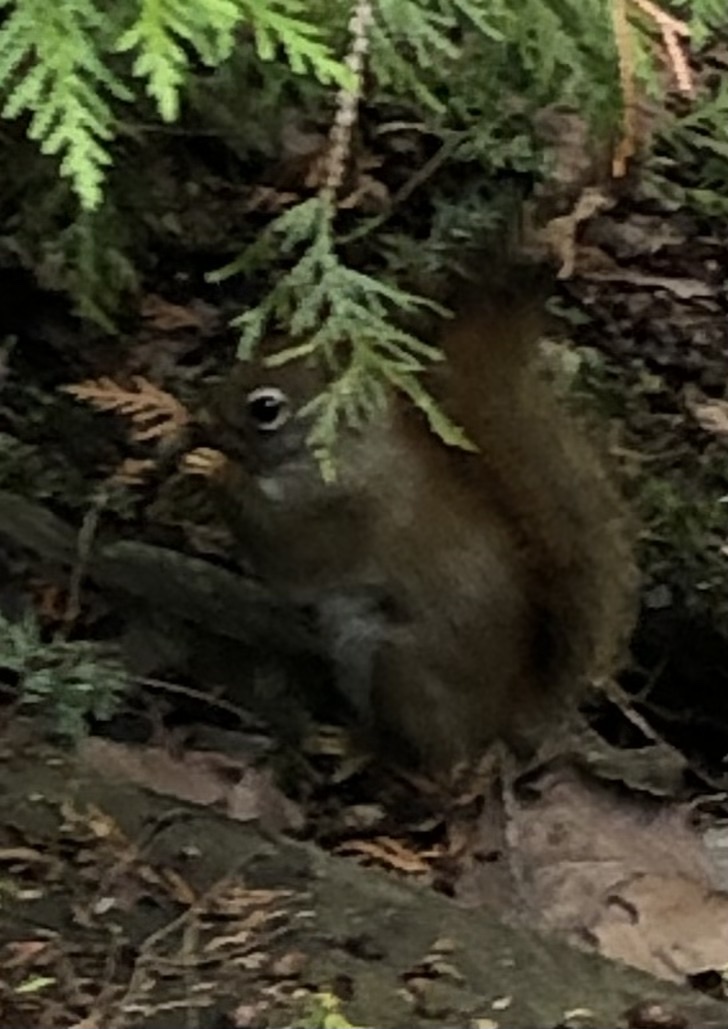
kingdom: Animalia
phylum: Chordata
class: Mammalia
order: Rodentia
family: Sciuridae
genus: Tamiasciurus
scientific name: Tamiasciurus hudsonicus
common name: Red squirrel
